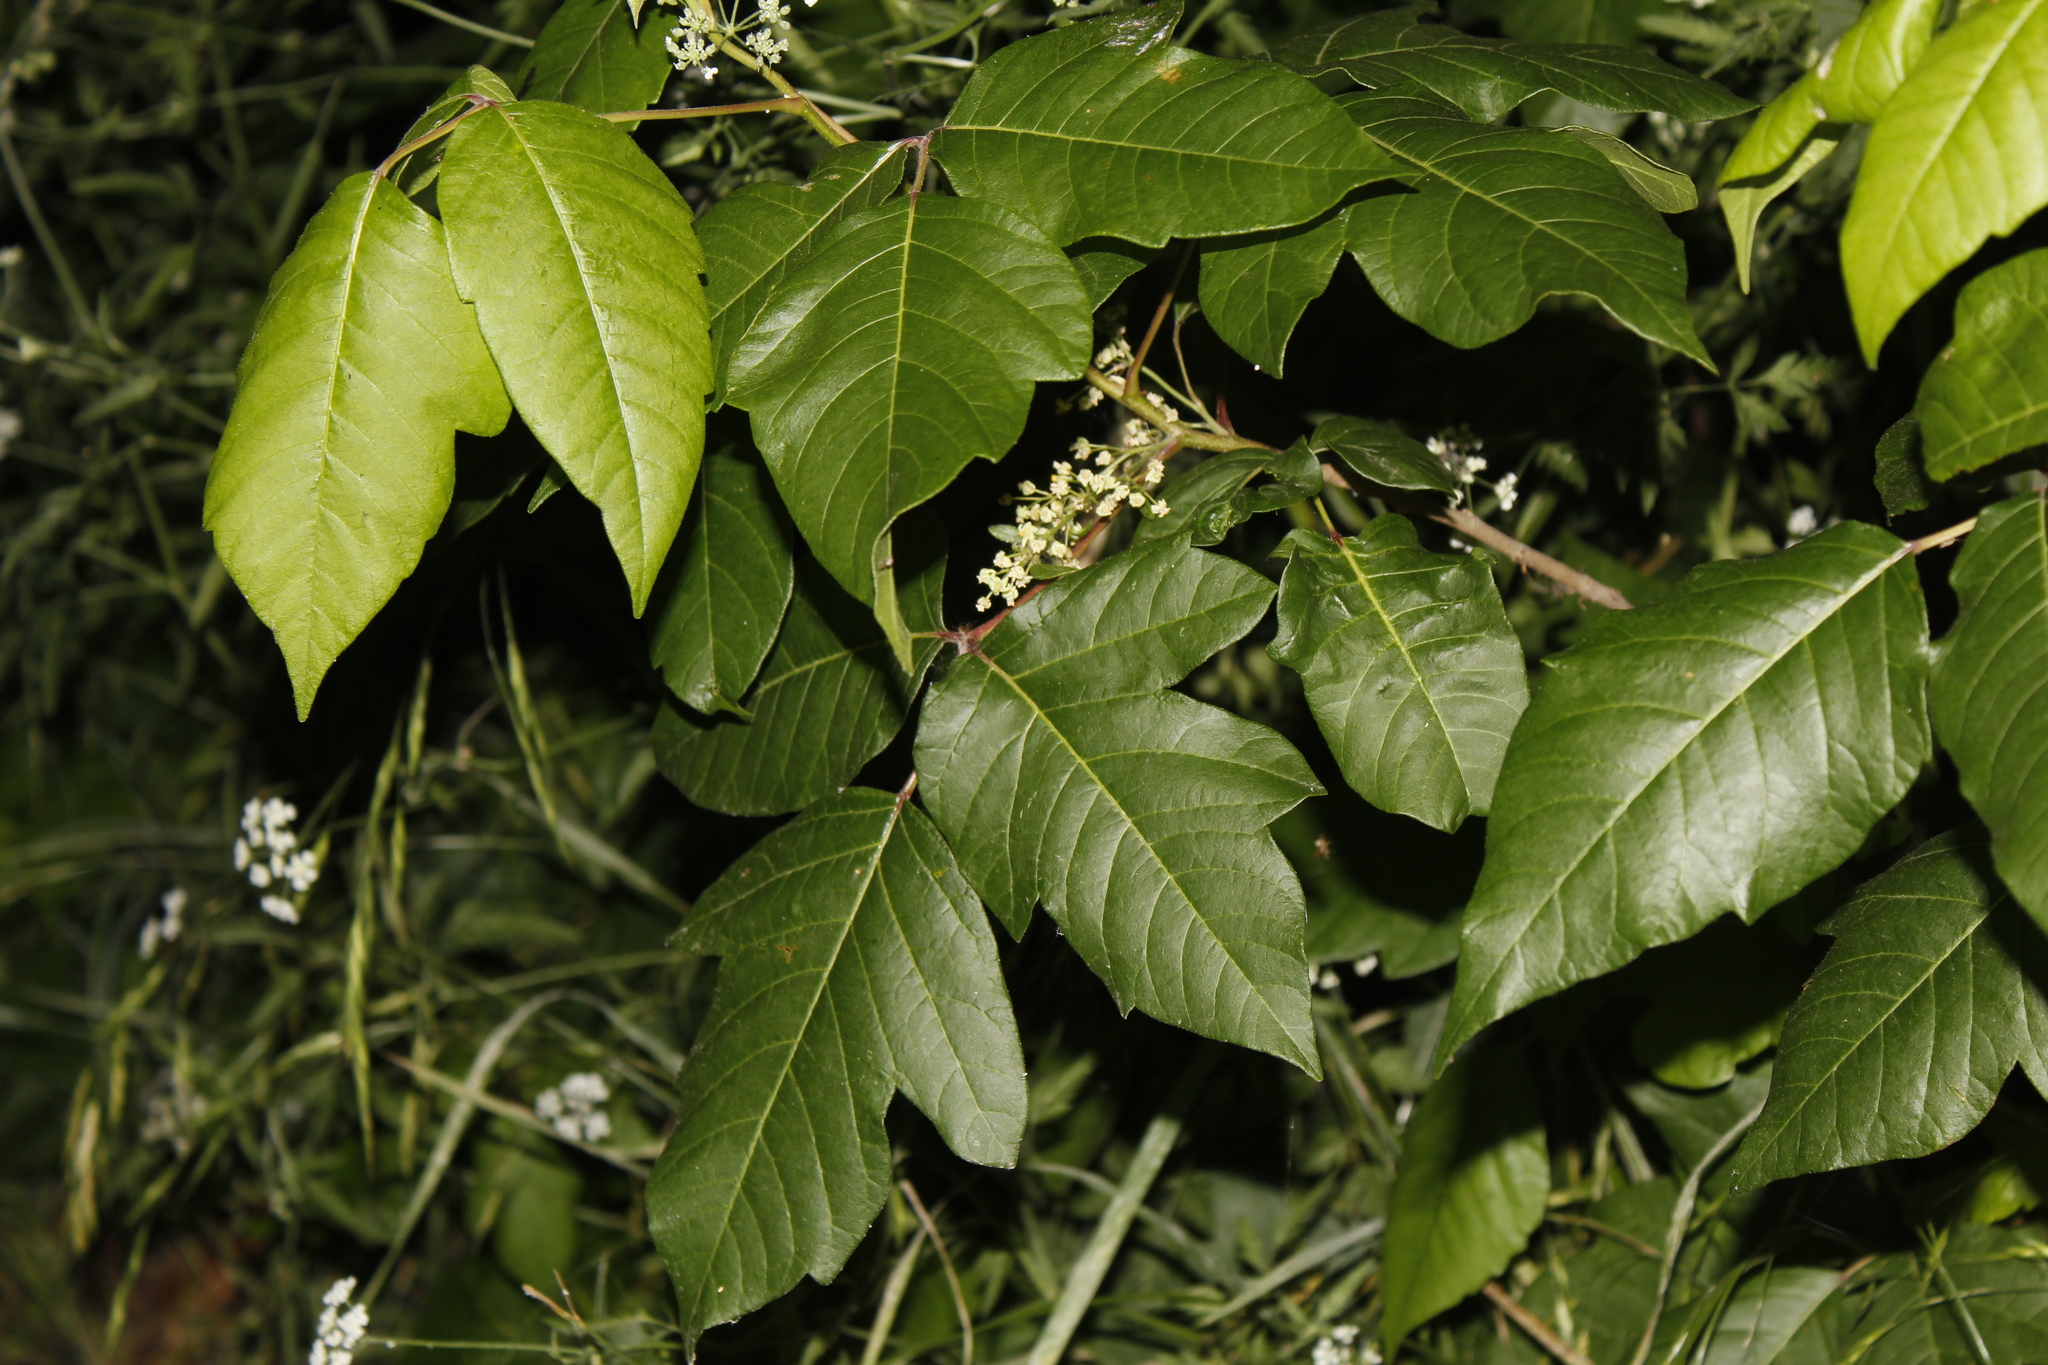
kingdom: Plantae
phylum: Tracheophyta
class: Magnoliopsida
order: Sapindales
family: Anacardiaceae
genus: Toxicodendron
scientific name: Toxicodendron radicans
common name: Poison ivy
